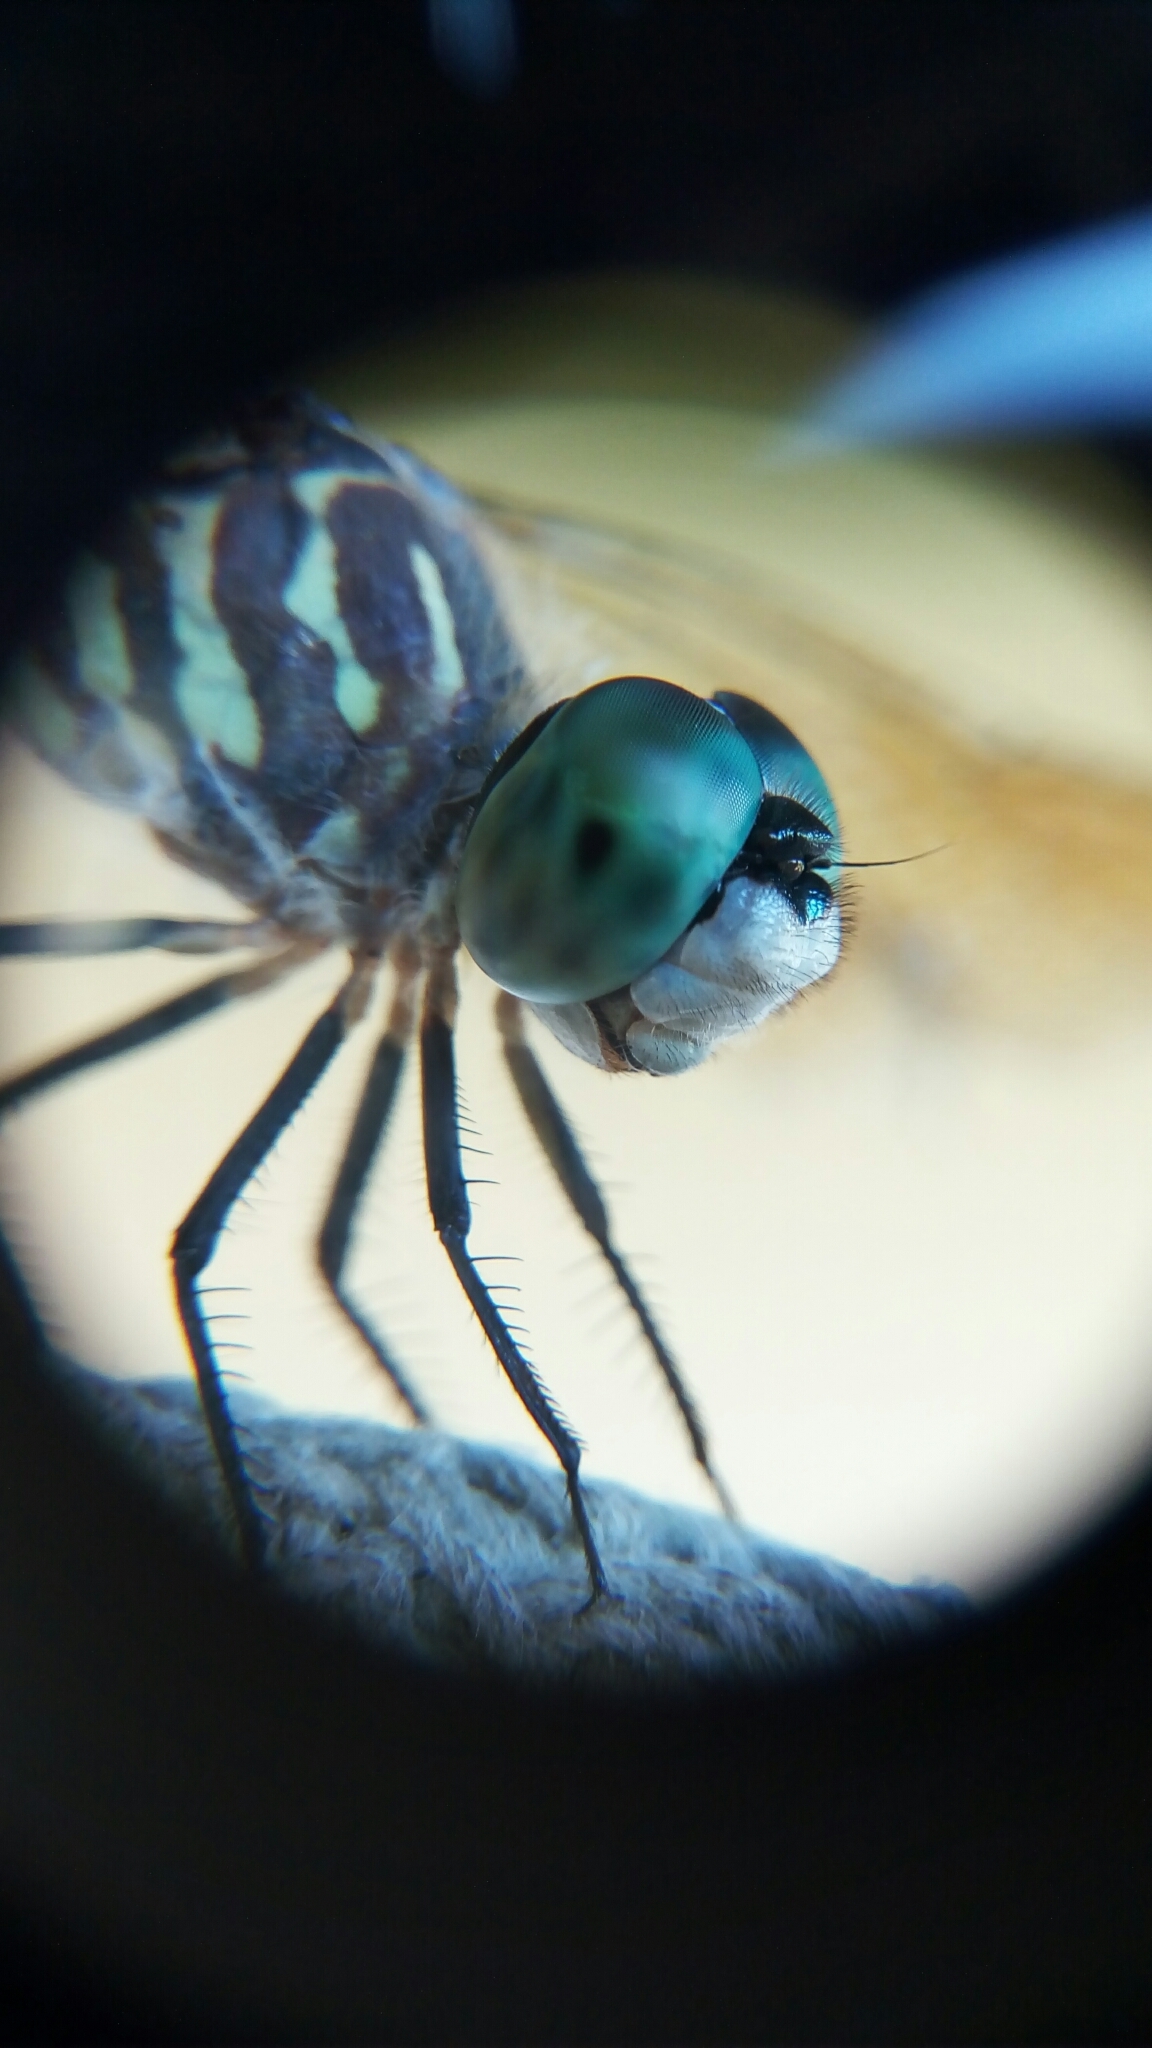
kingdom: Animalia
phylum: Arthropoda
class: Insecta
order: Odonata
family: Libellulidae
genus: Pachydiplax
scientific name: Pachydiplax longipennis
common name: Blue dasher
